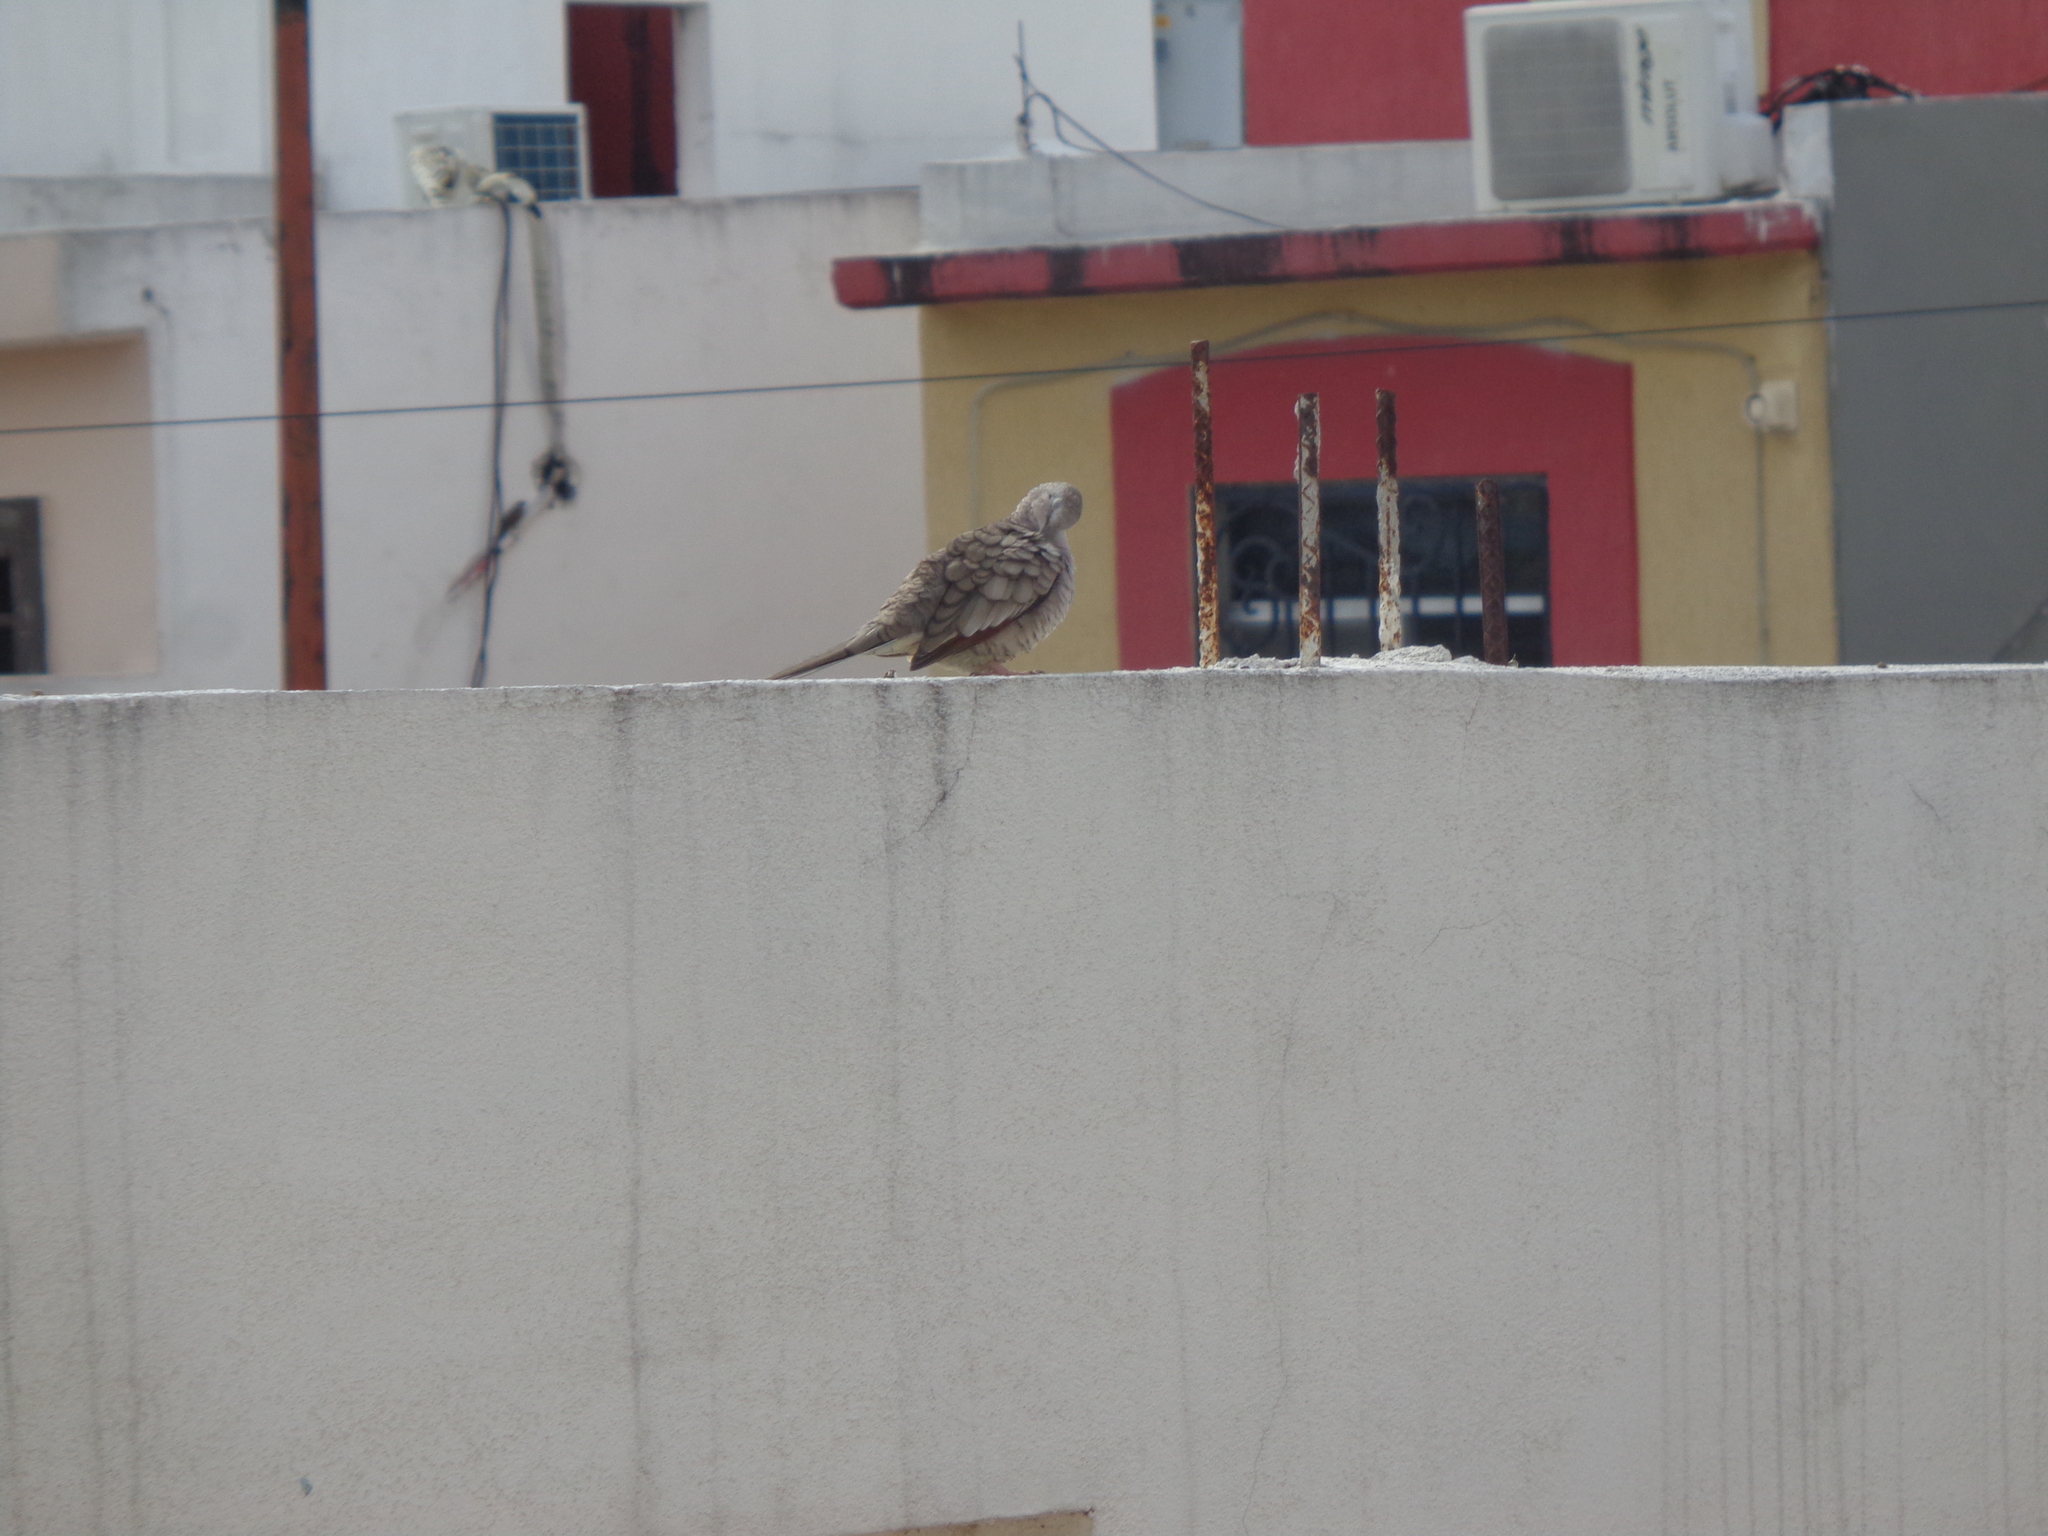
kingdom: Animalia
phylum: Chordata
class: Aves
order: Columbiformes
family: Columbidae
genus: Columbina
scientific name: Columbina inca
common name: Inca dove
